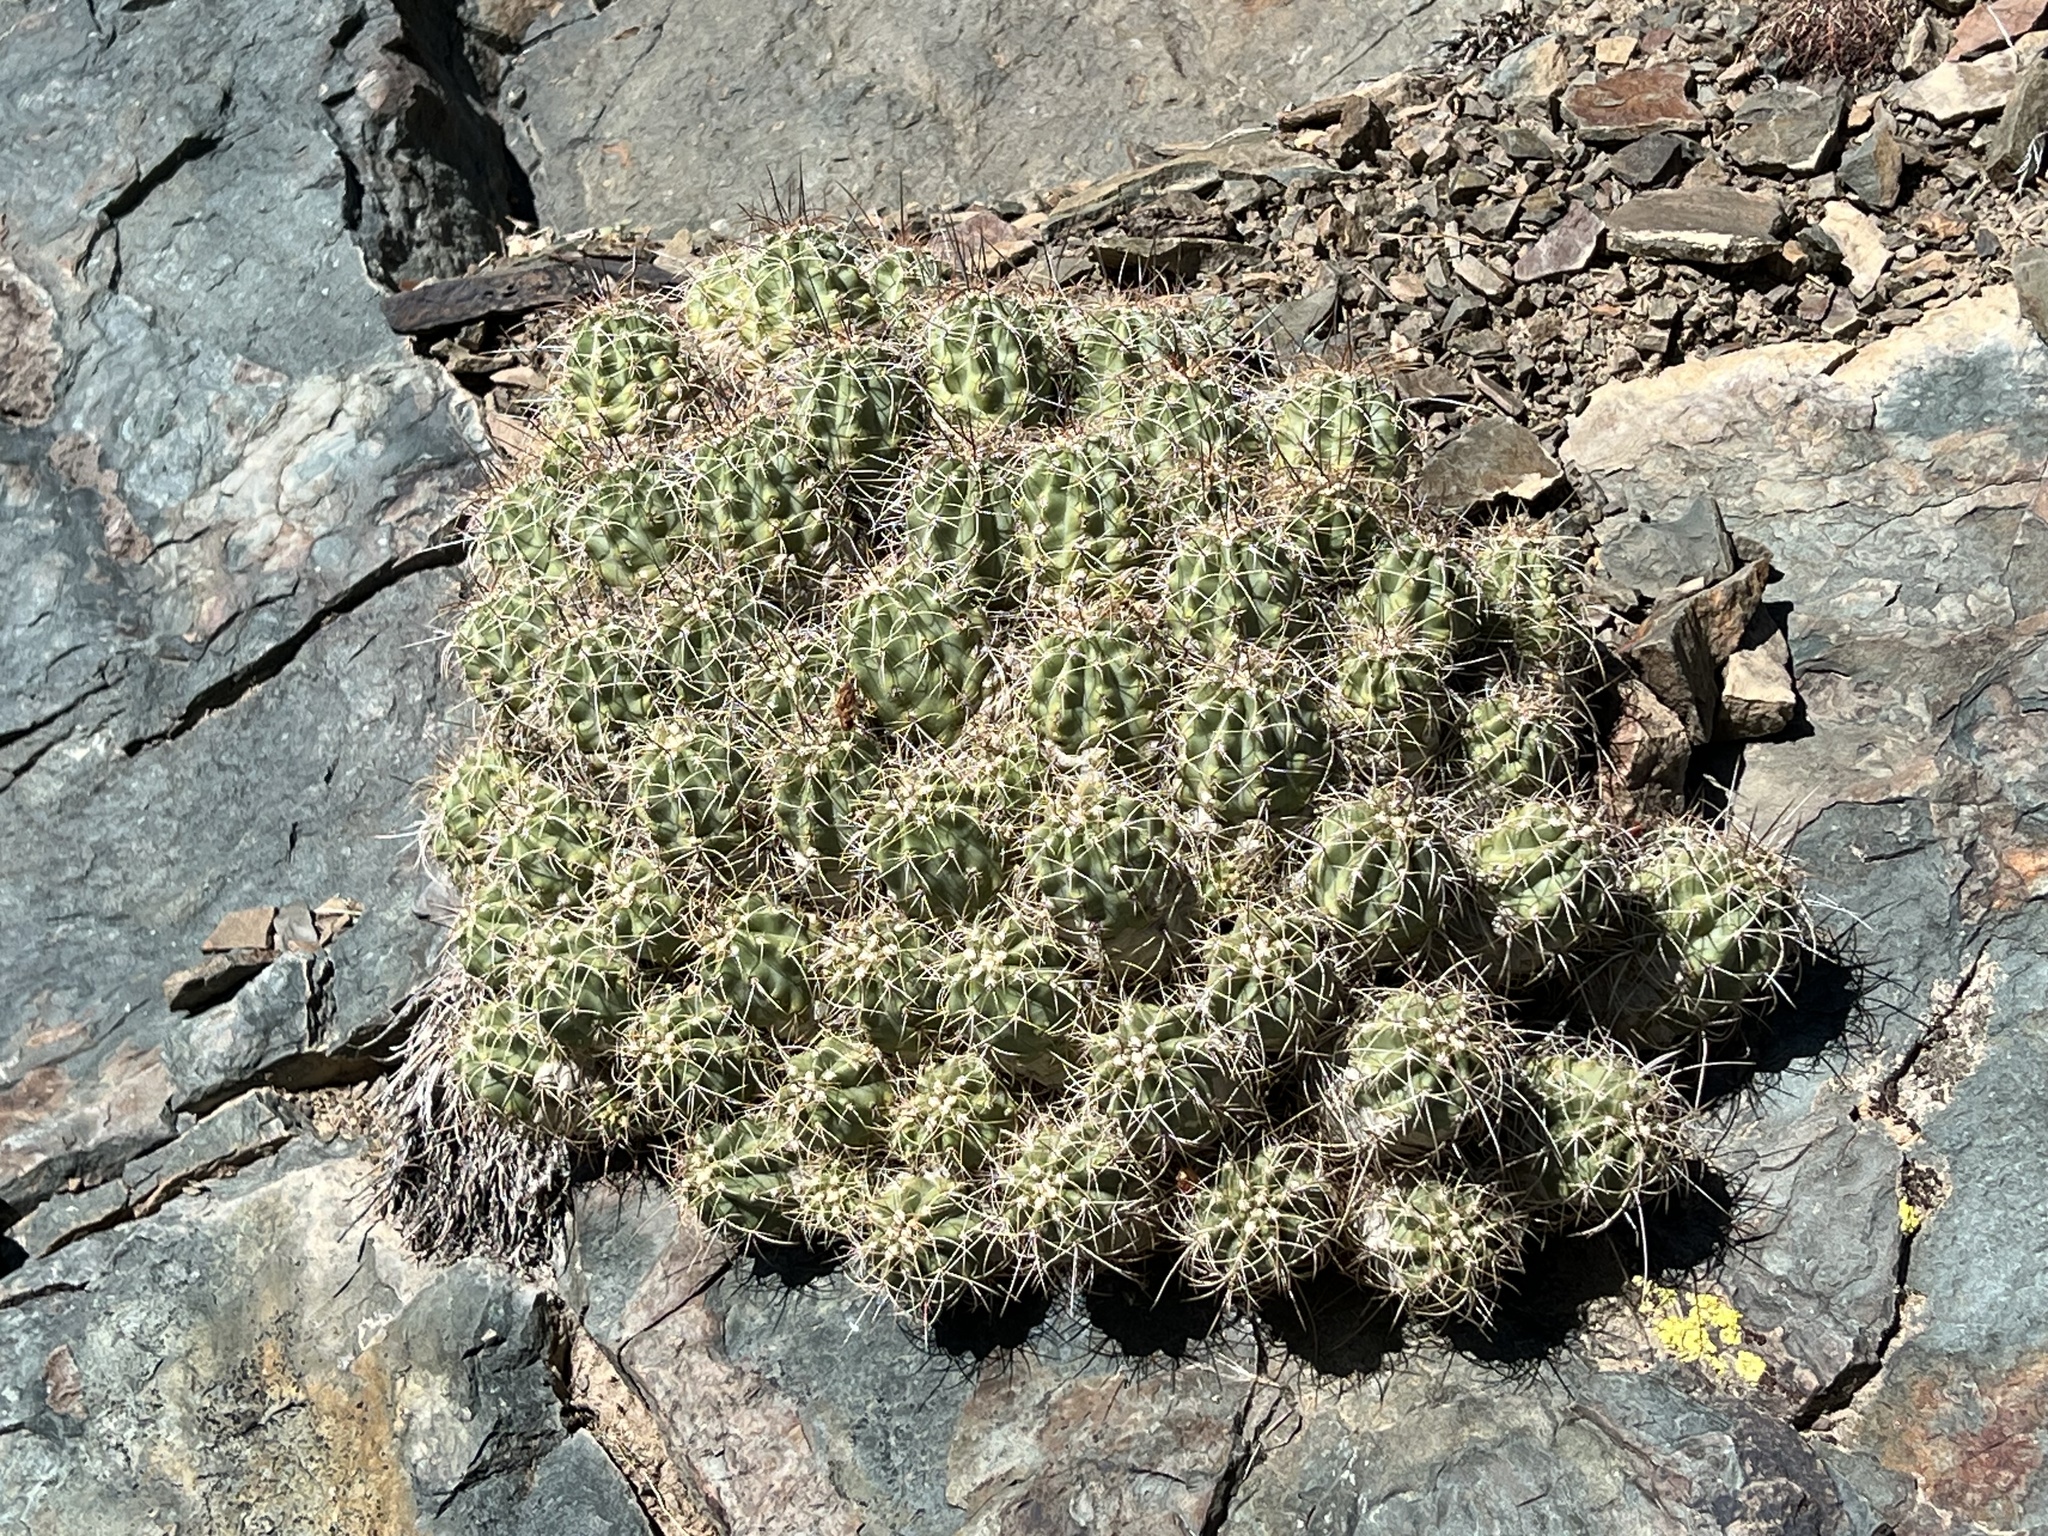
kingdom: Plantae
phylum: Tracheophyta
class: Magnoliopsida
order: Caryophyllales
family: Cactaceae
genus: Echinocereus
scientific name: Echinocereus triglochidiatus
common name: Claretcup hedgehog
